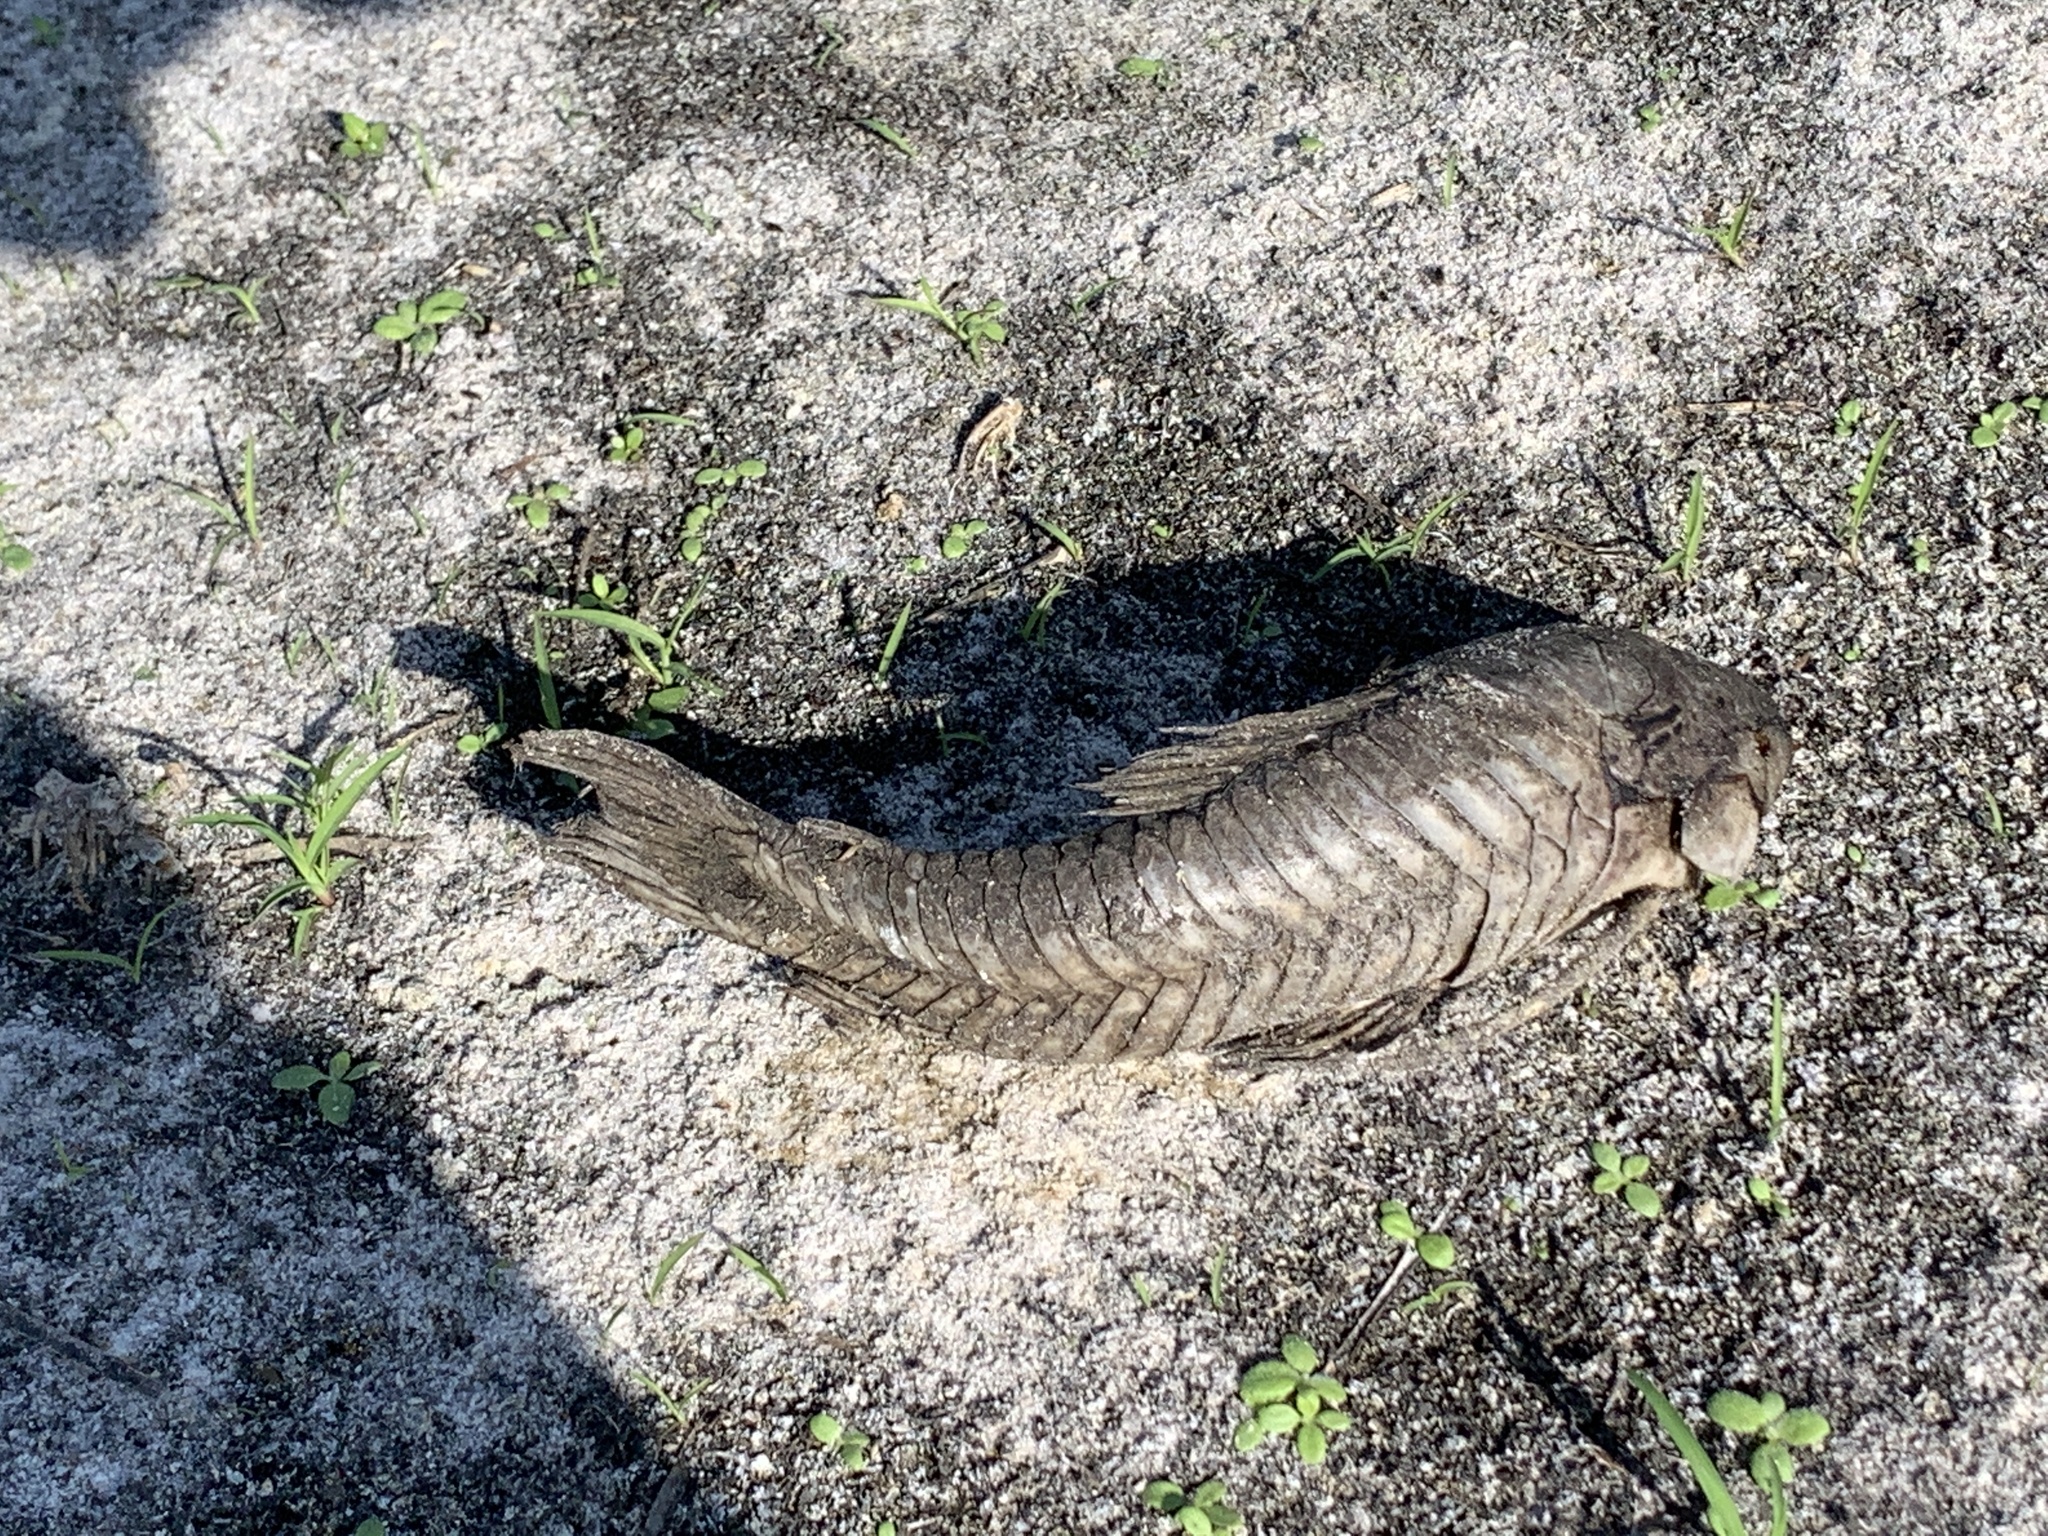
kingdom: Animalia
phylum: Chordata
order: Siluriformes
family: Callichthyidae
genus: Hoplosternum
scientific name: Hoplosternum littorale
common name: Brown hoplo
